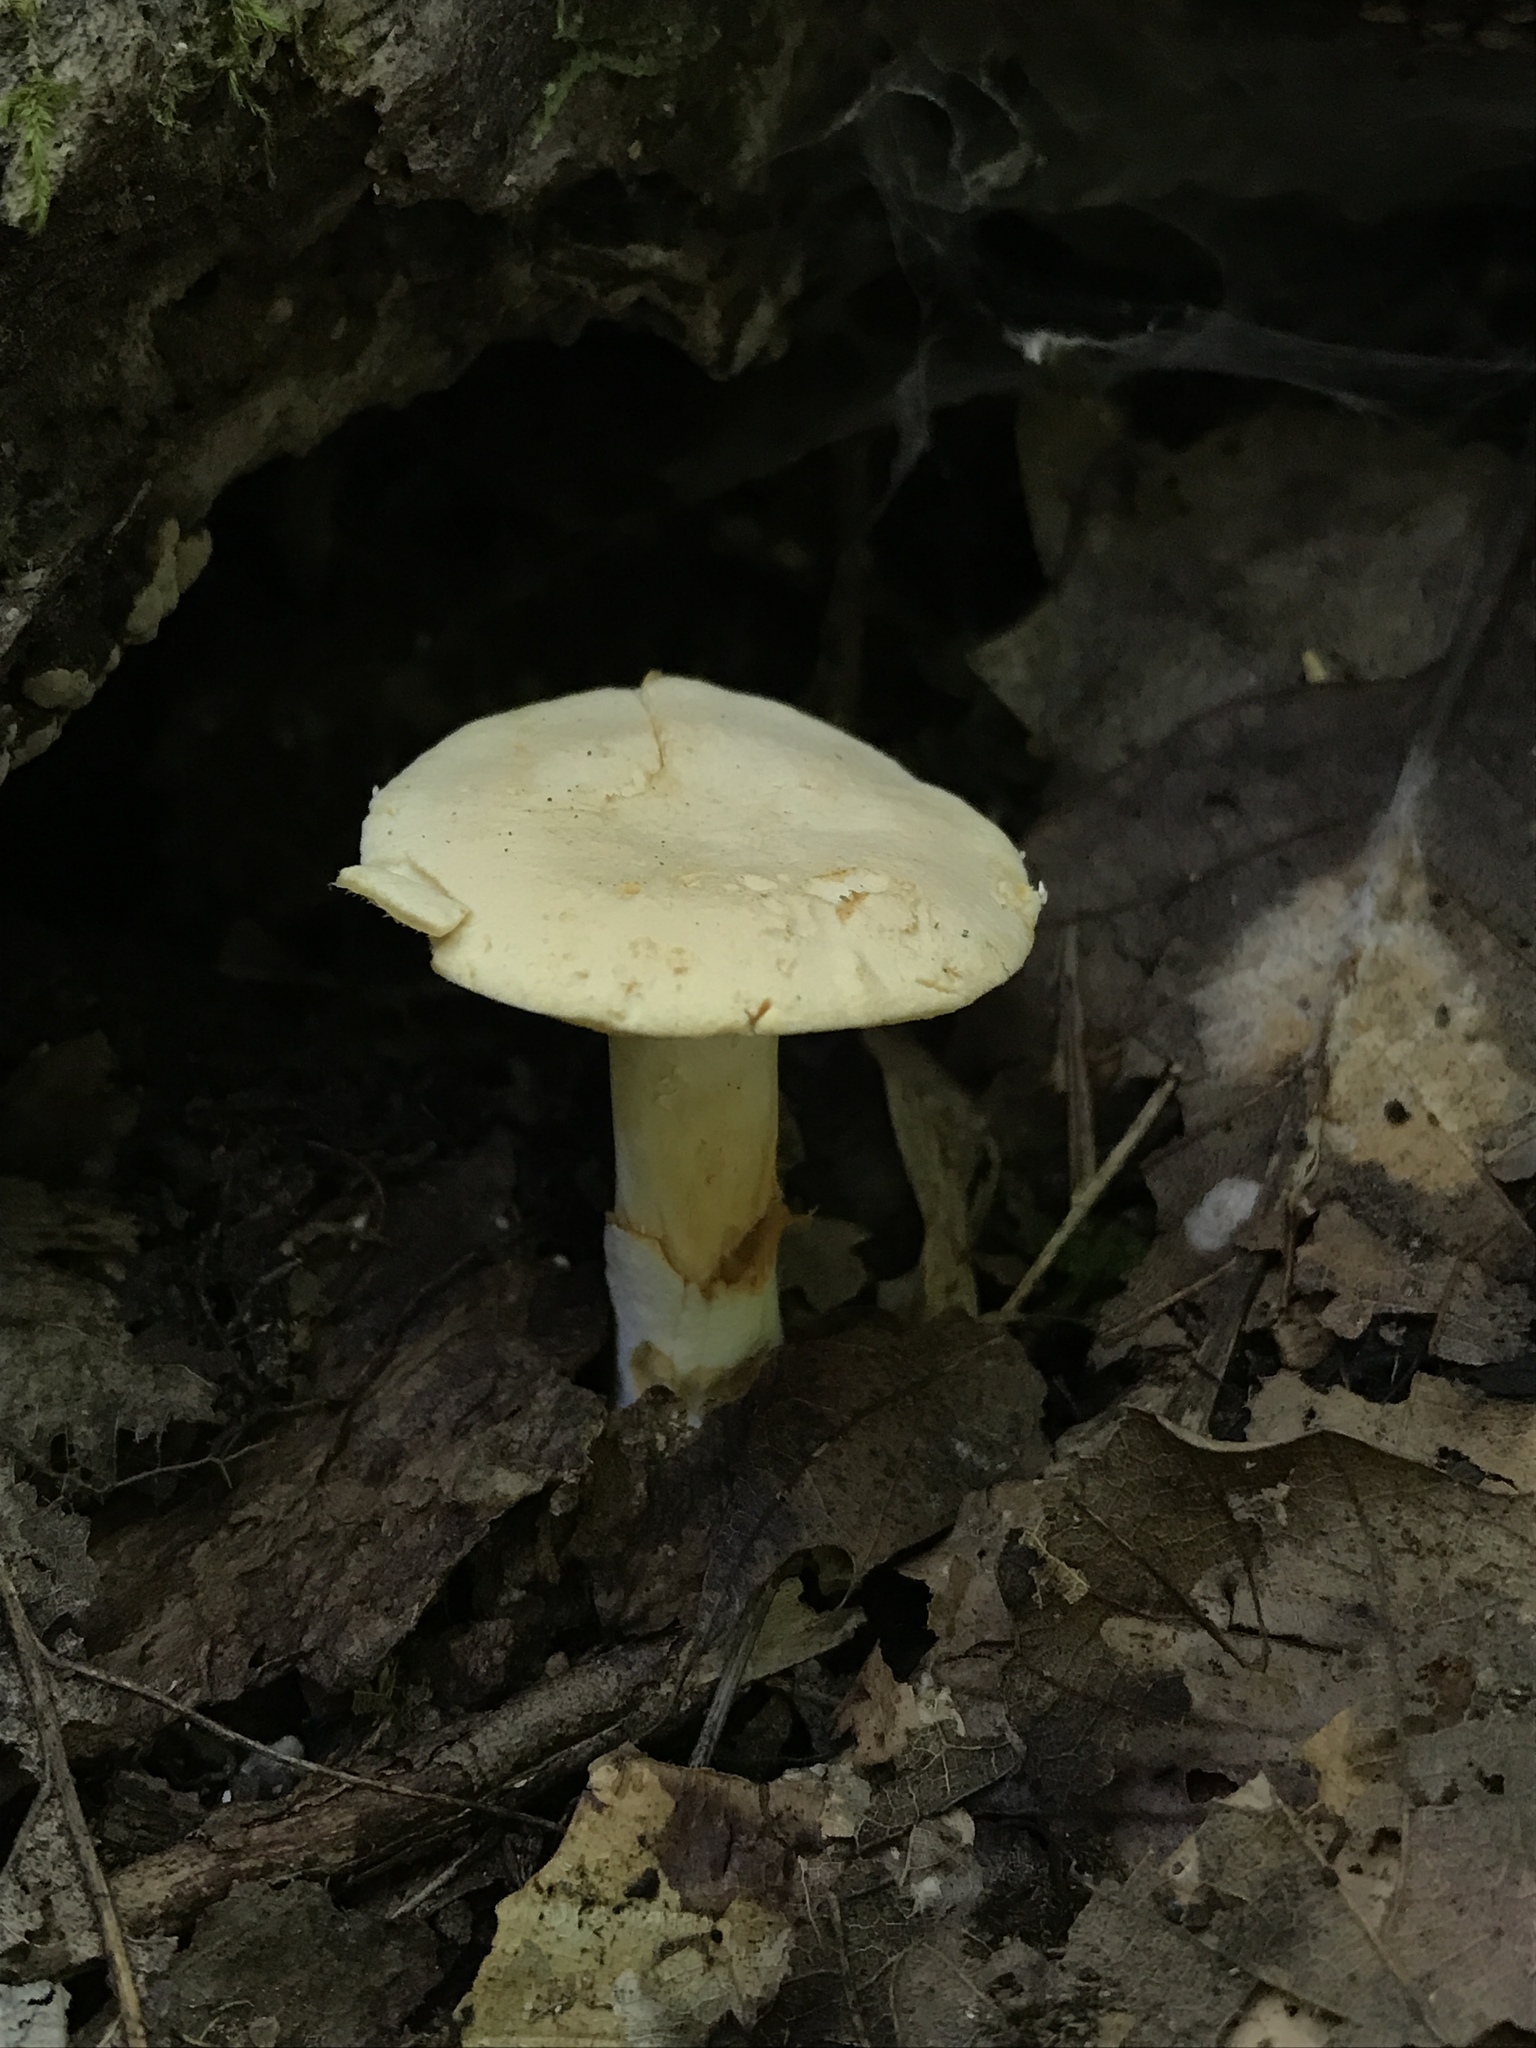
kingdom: Fungi
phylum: Basidiomycota
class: Agaricomycetes
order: Cantharellales
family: Hydnaceae
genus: Hydnum
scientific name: Hydnum subtilior
